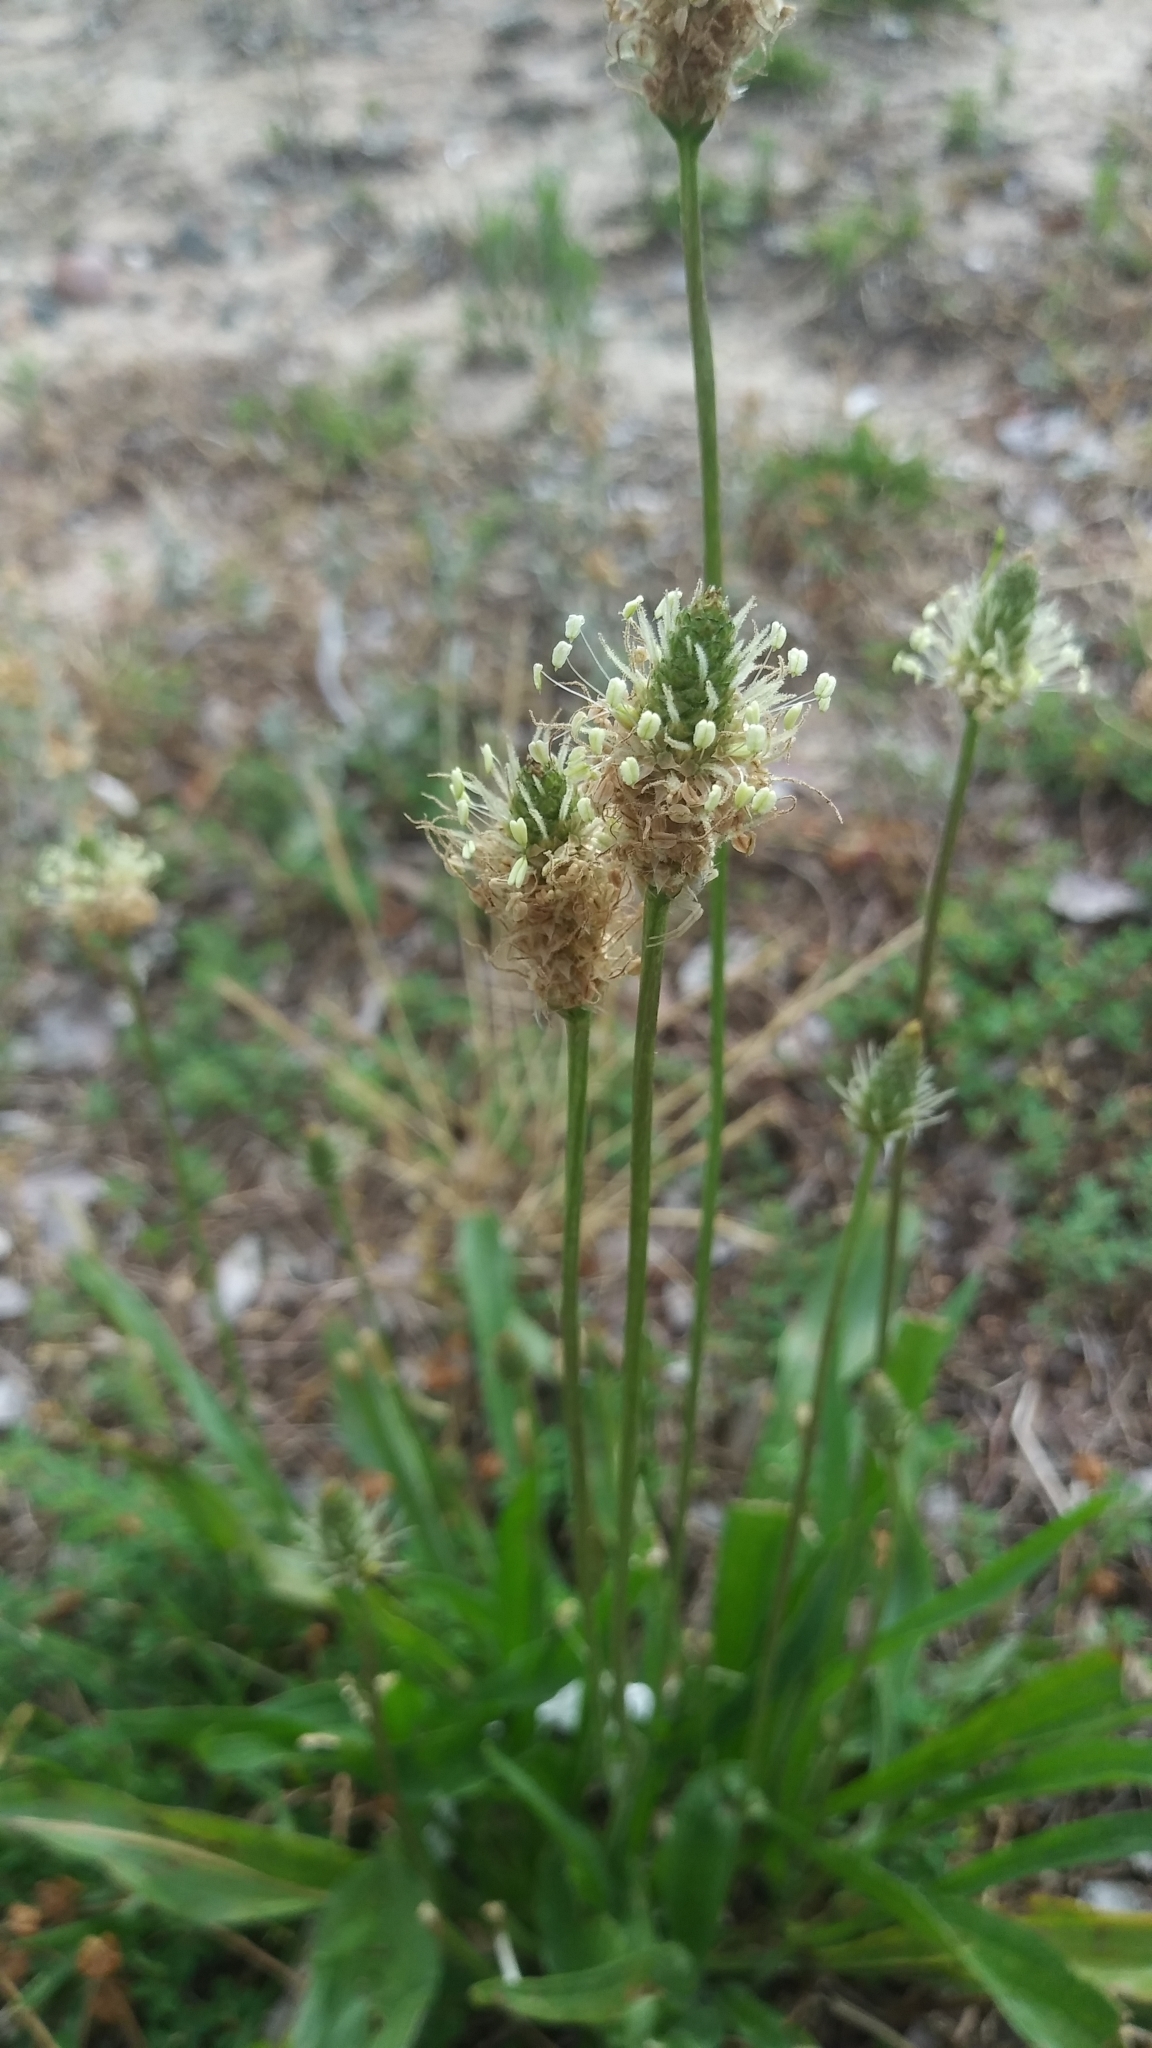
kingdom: Plantae
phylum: Tracheophyta
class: Magnoliopsida
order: Lamiales
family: Plantaginaceae
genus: Plantago
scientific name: Plantago lanceolata
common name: Ribwort plantain
